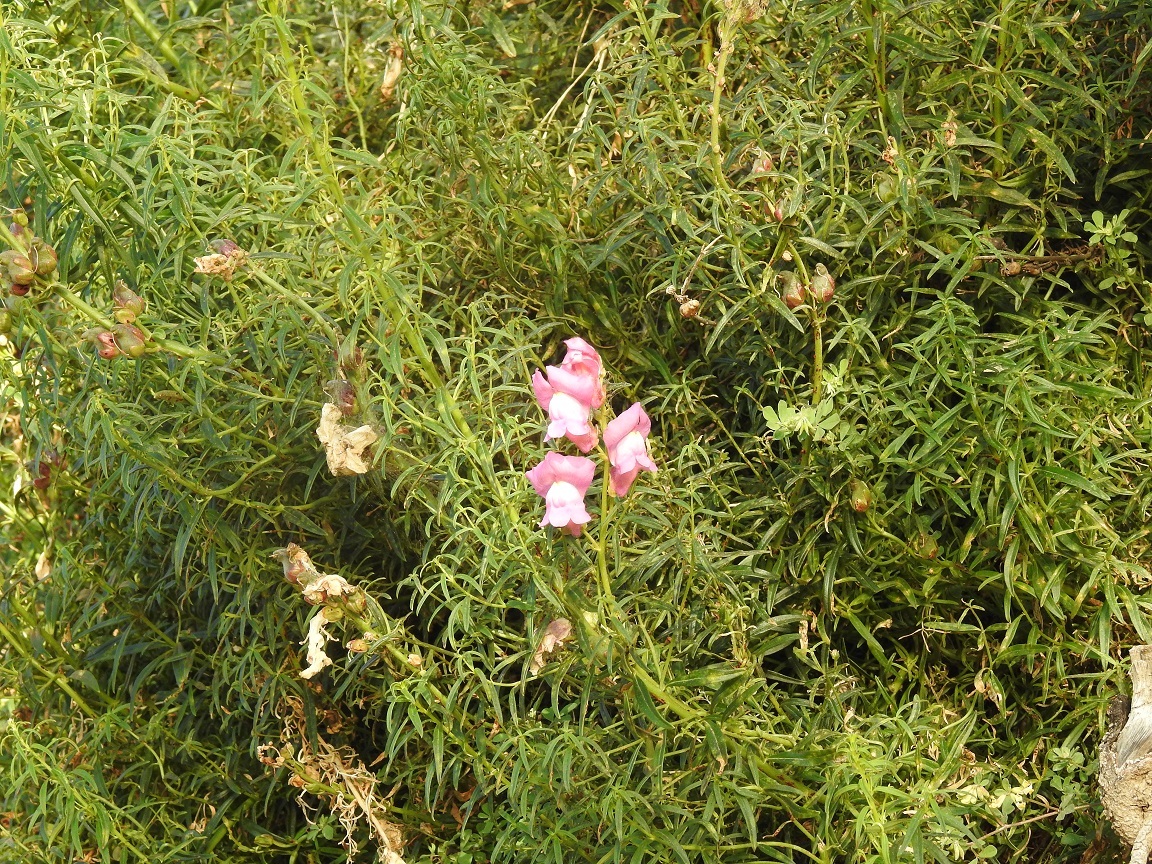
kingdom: Plantae
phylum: Tracheophyta
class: Magnoliopsida
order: Lamiales
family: Plantaginaceae
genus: Antirrhinum
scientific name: Antirrhinum tortuosum
